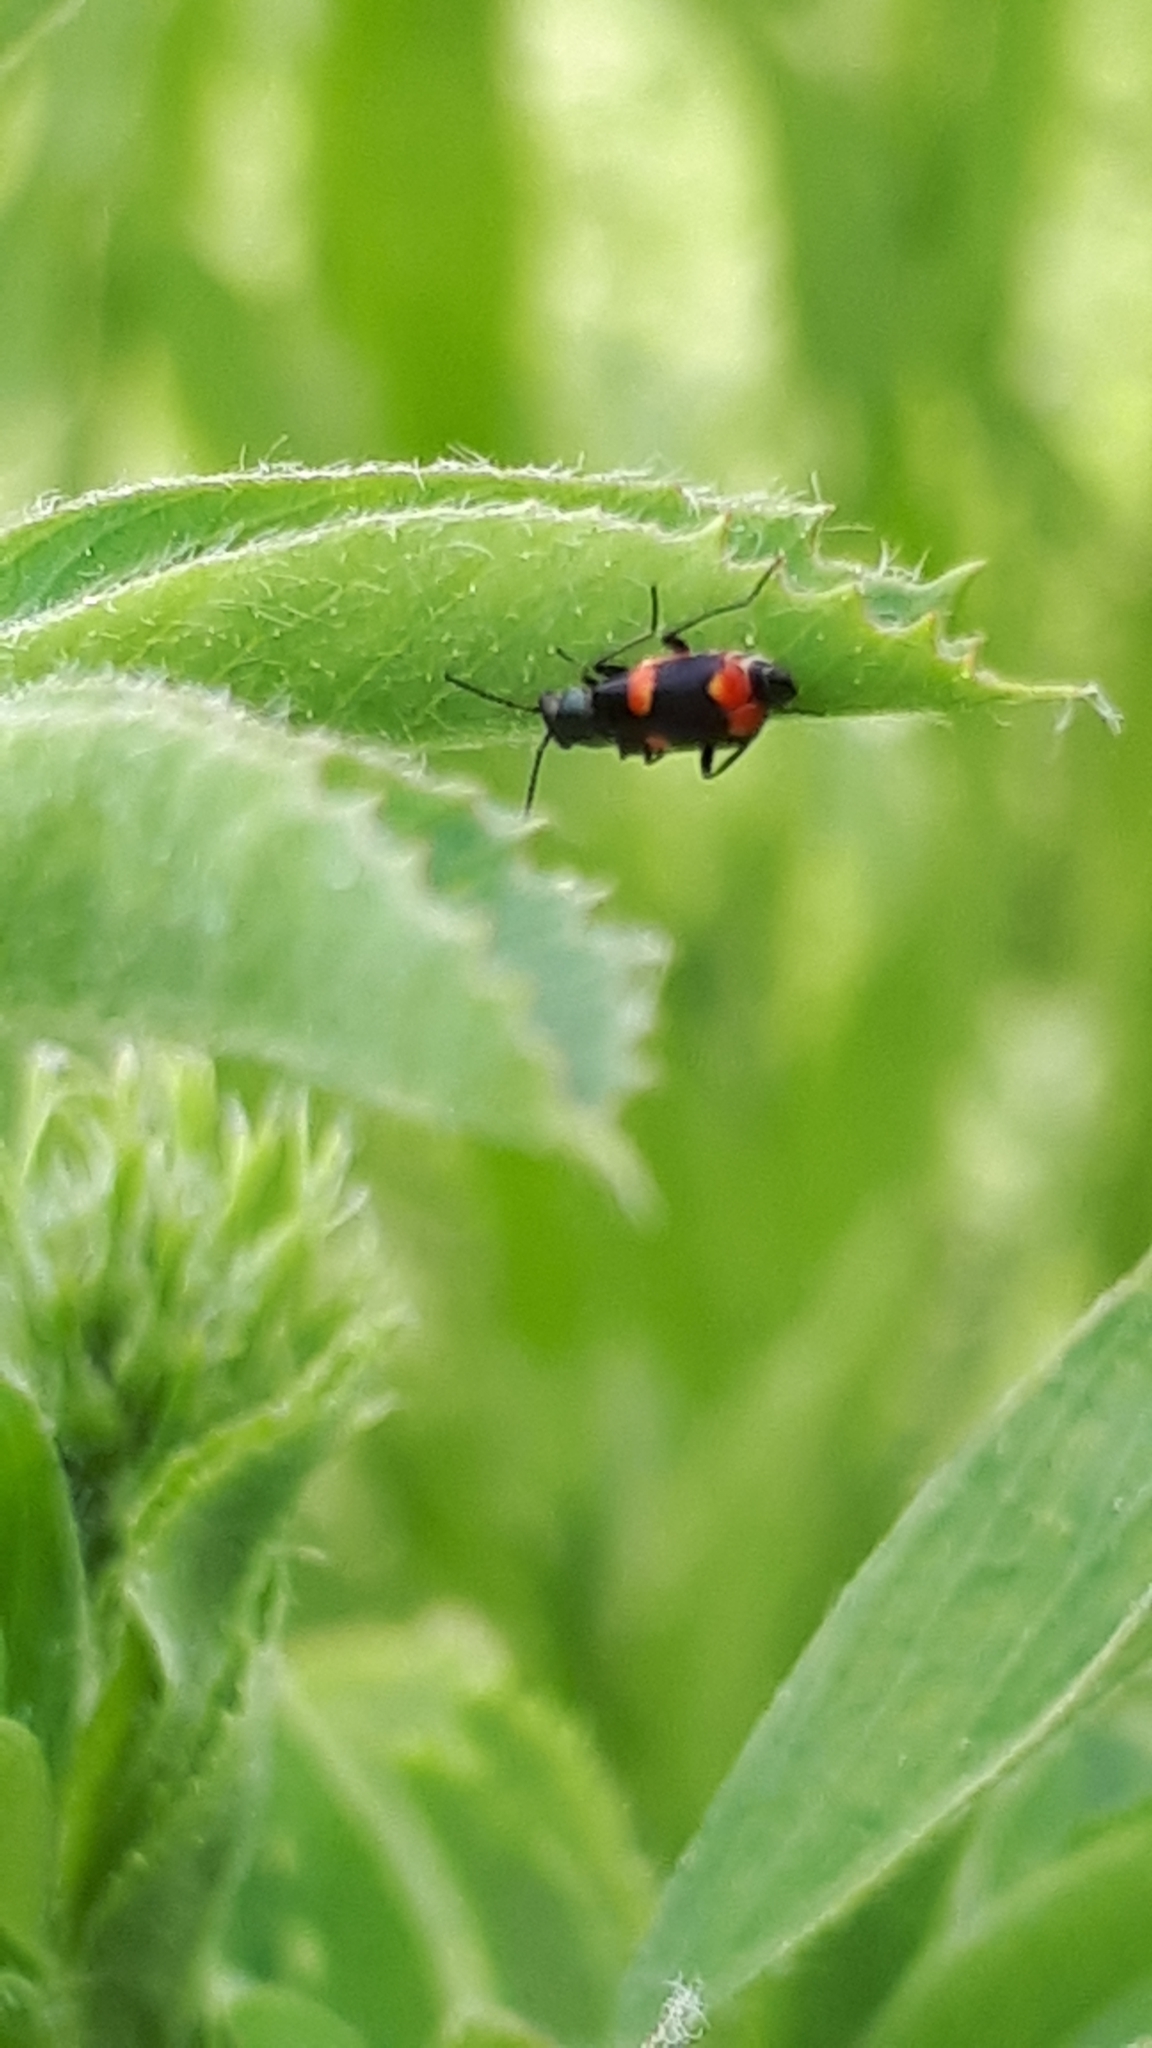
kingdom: Animalia
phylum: Arthropoda
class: Insecta
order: Coleoptera
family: Melyridae
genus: Anthocomus
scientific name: Anthocomus fasciatus
